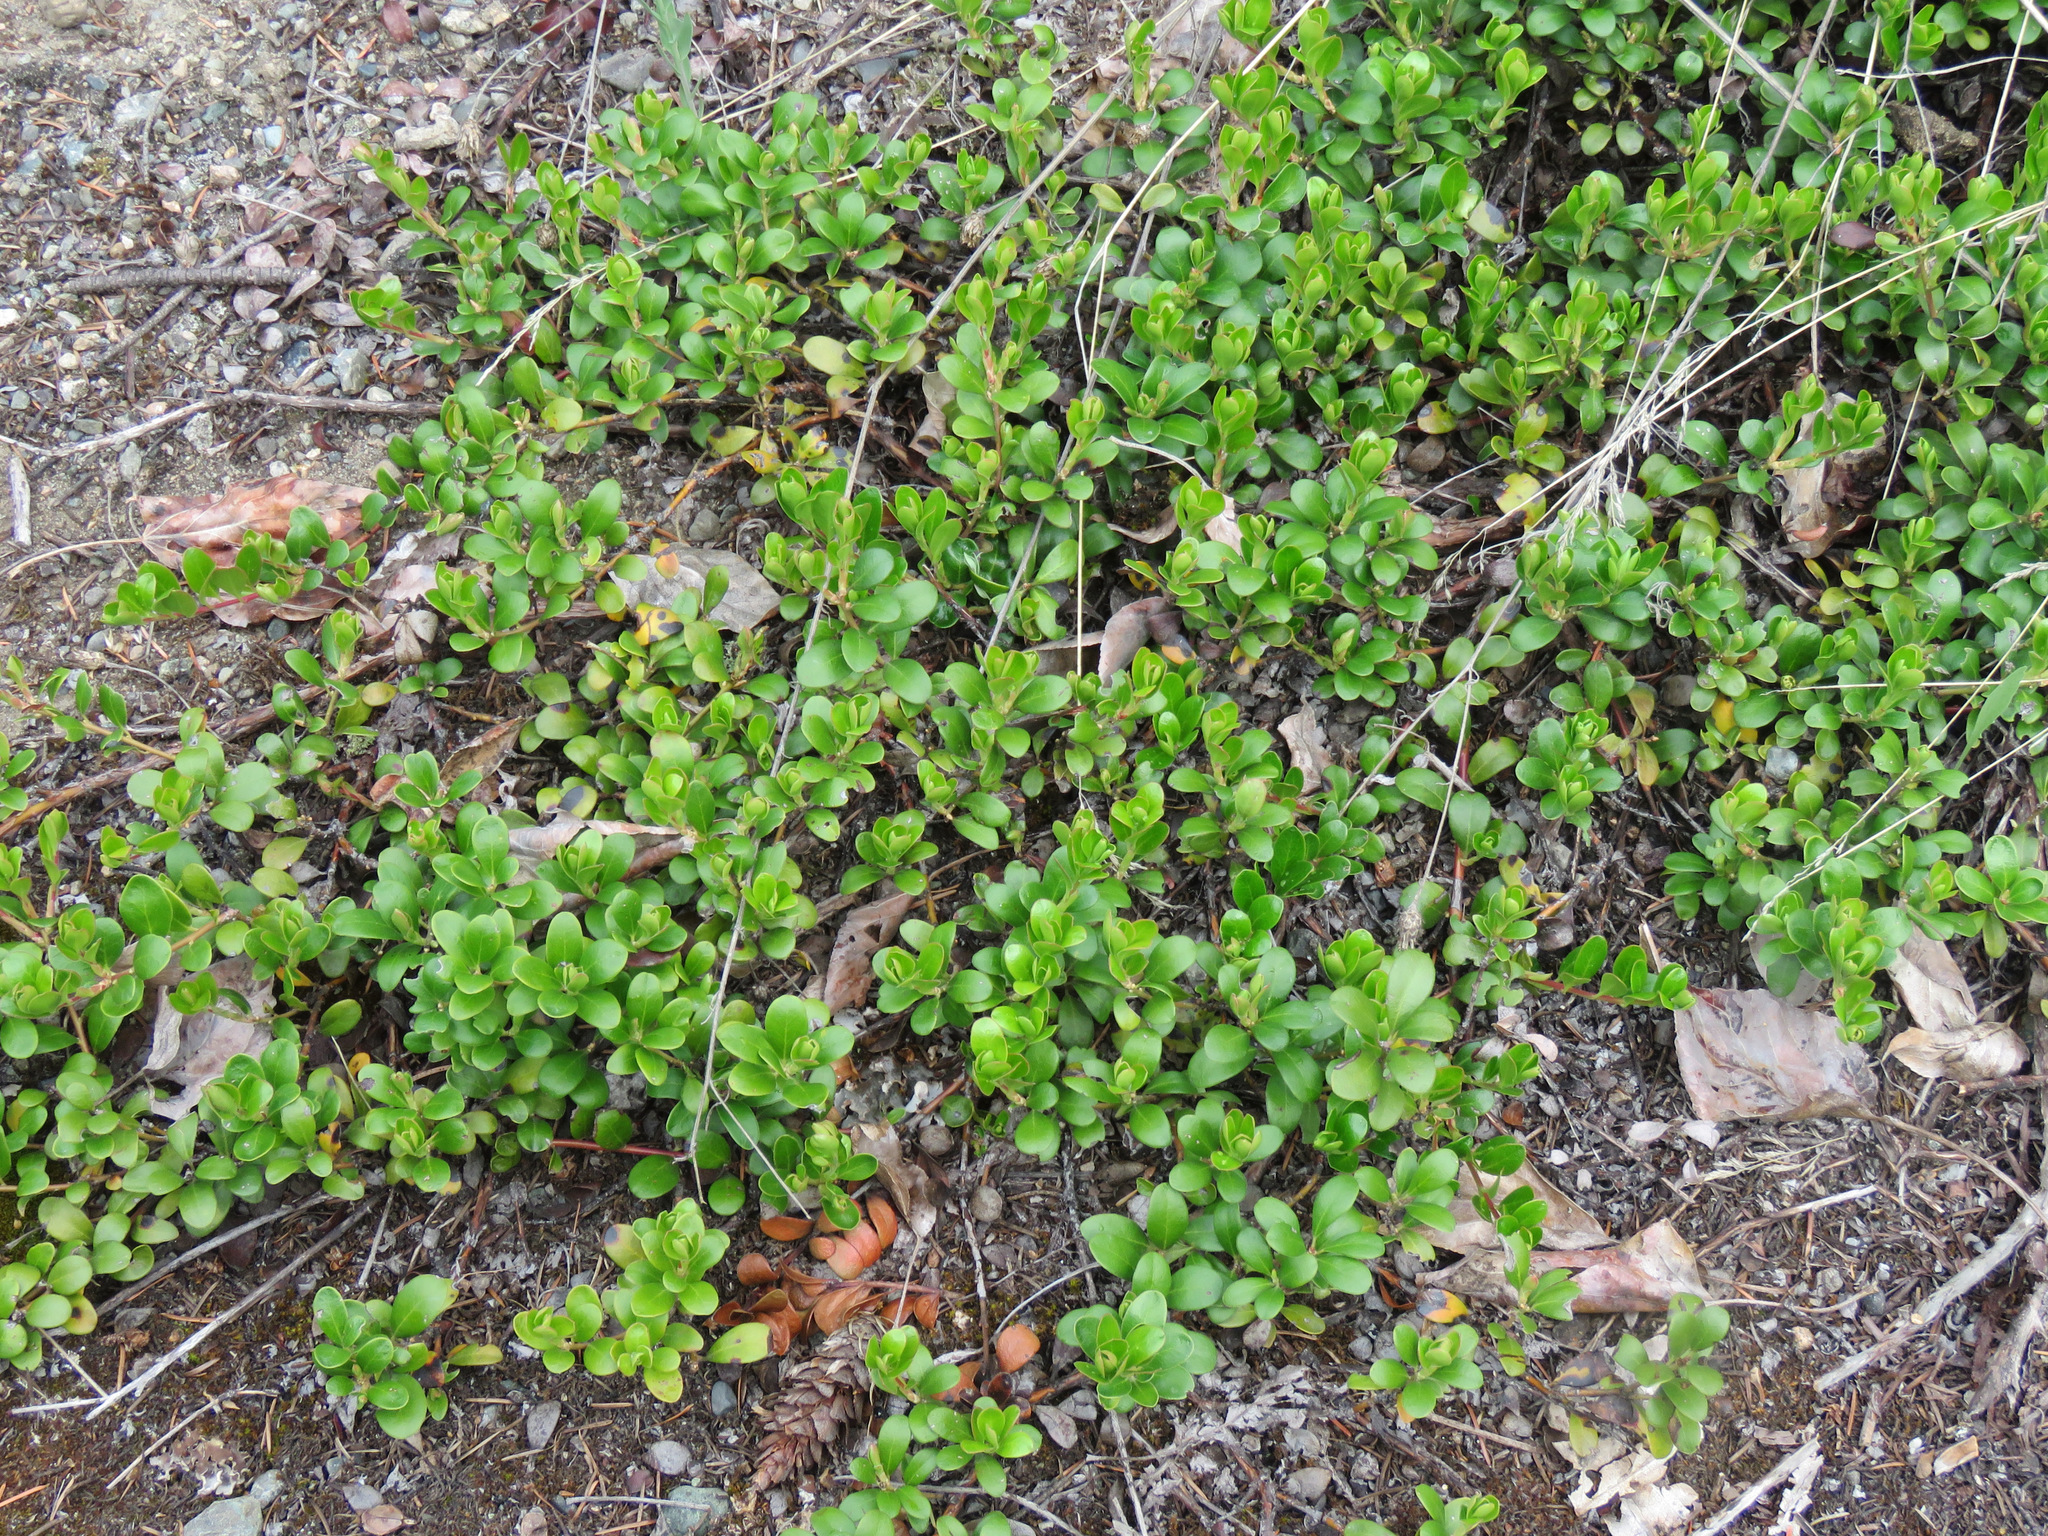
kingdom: Plantae
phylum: Tracheophyta
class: Magnoliopsida
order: Ericales
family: Ericaceae
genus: Arctostaphylos
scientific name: Arctostaphylos uva-ursi
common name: Bearberry
